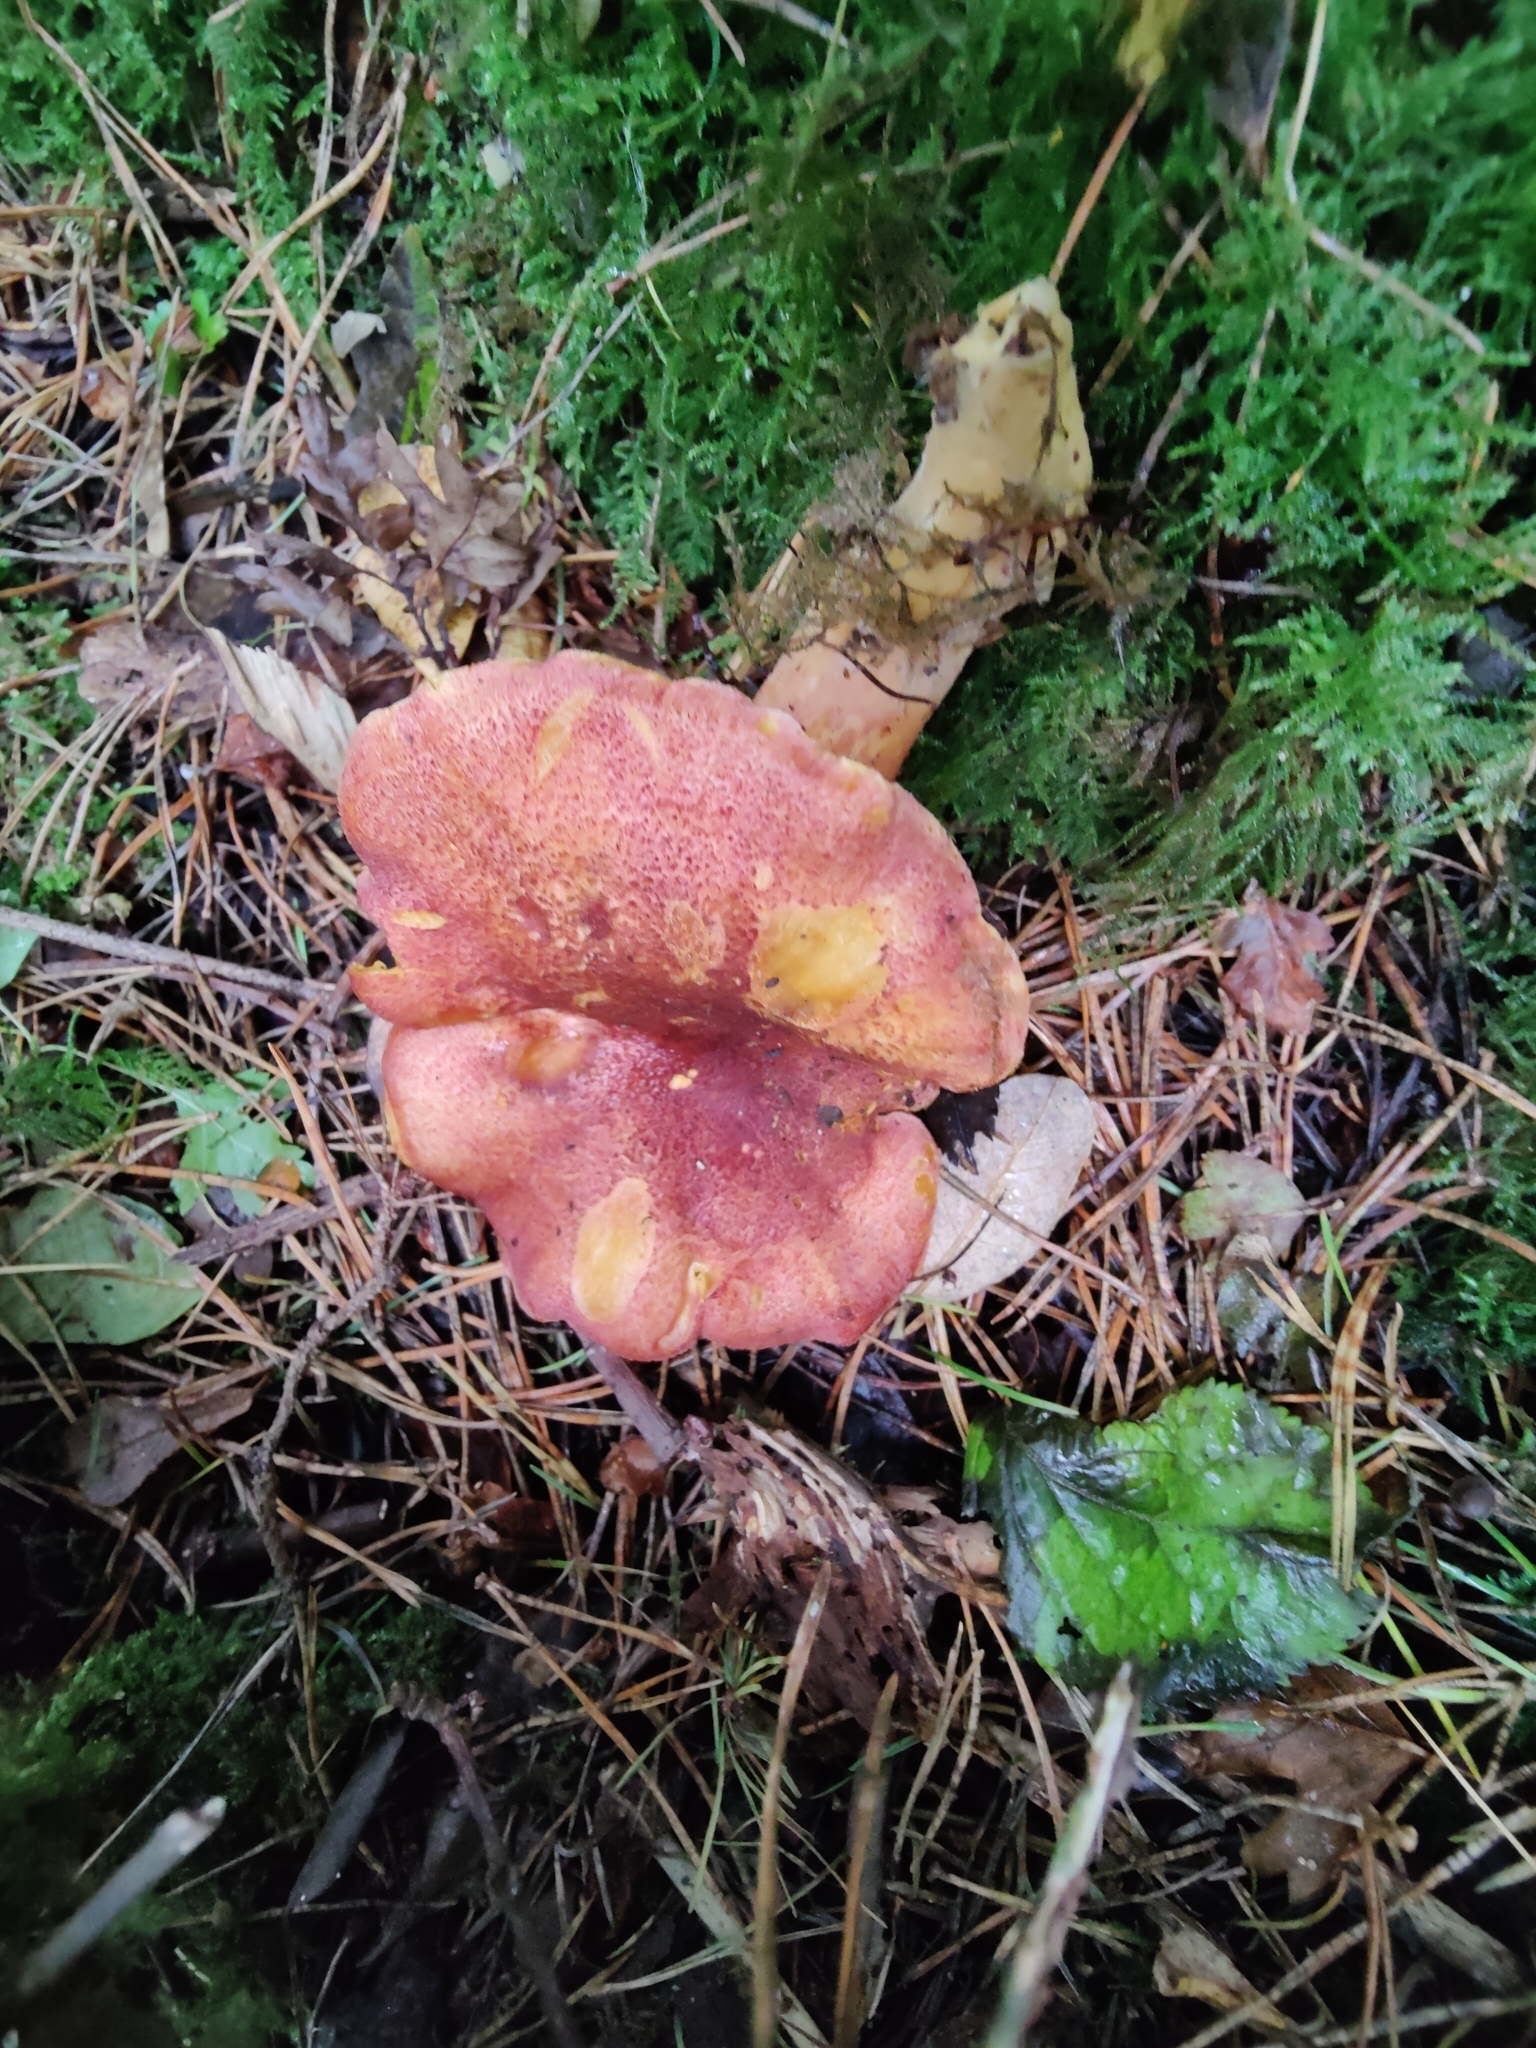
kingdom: Fungi
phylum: Basidiomycota
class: Agaricomycetes
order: Agaricales
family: Tricholomataceae
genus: Tricholomopsis
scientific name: Tricholomopsis rutilans
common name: Plums and custard
